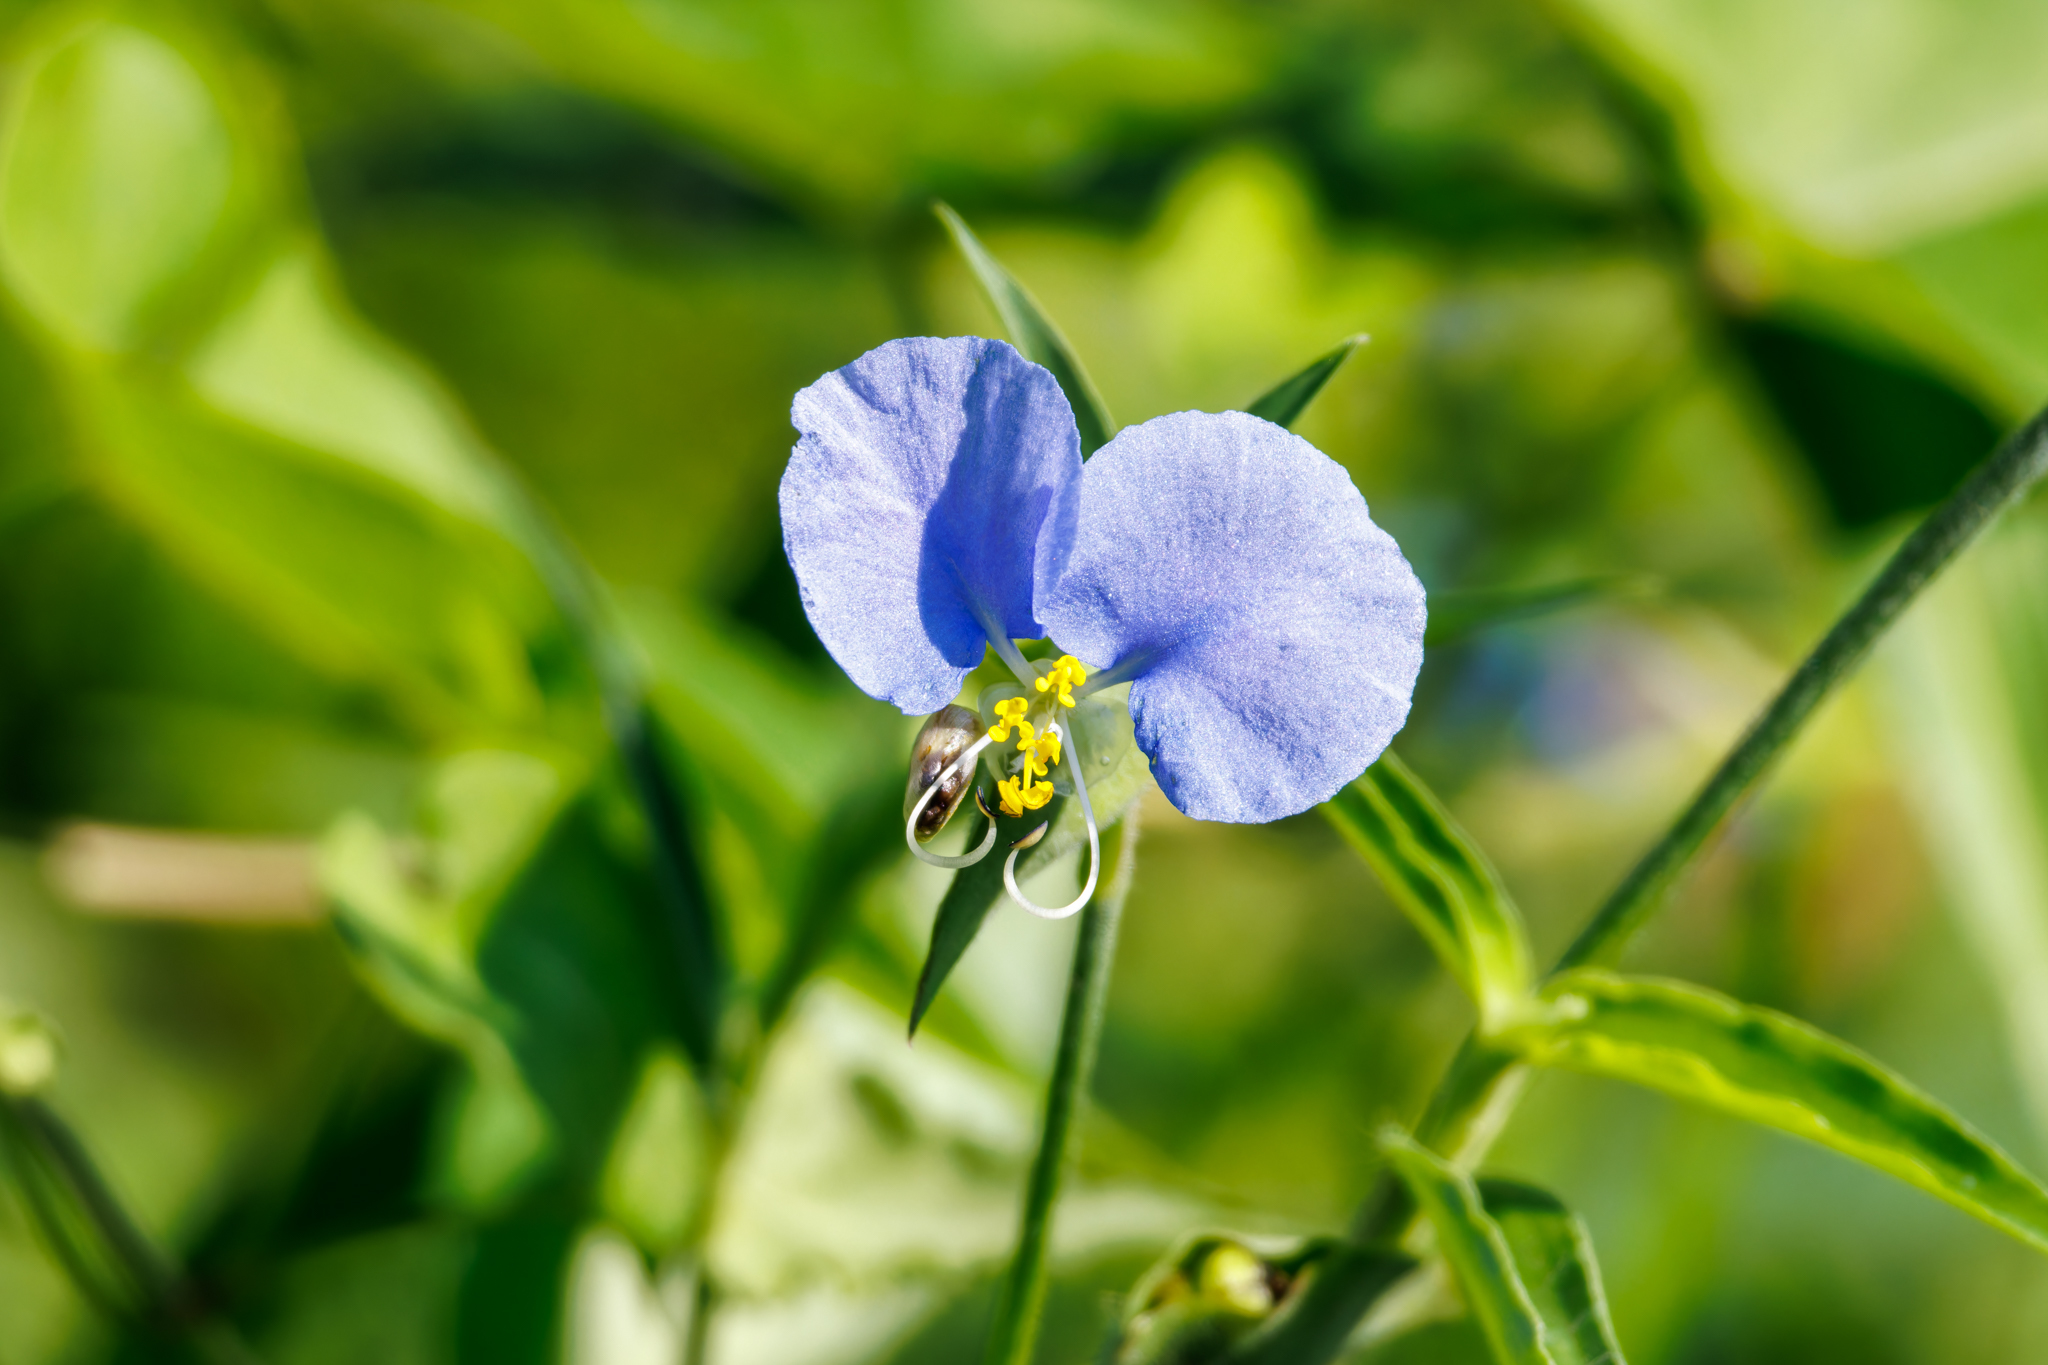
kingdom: Plantae
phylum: Tracheophyta
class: Liliopsida
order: Commelinales
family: Commelinaceae
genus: Commelina
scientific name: Commelina erecta
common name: Blousel blommetjie
